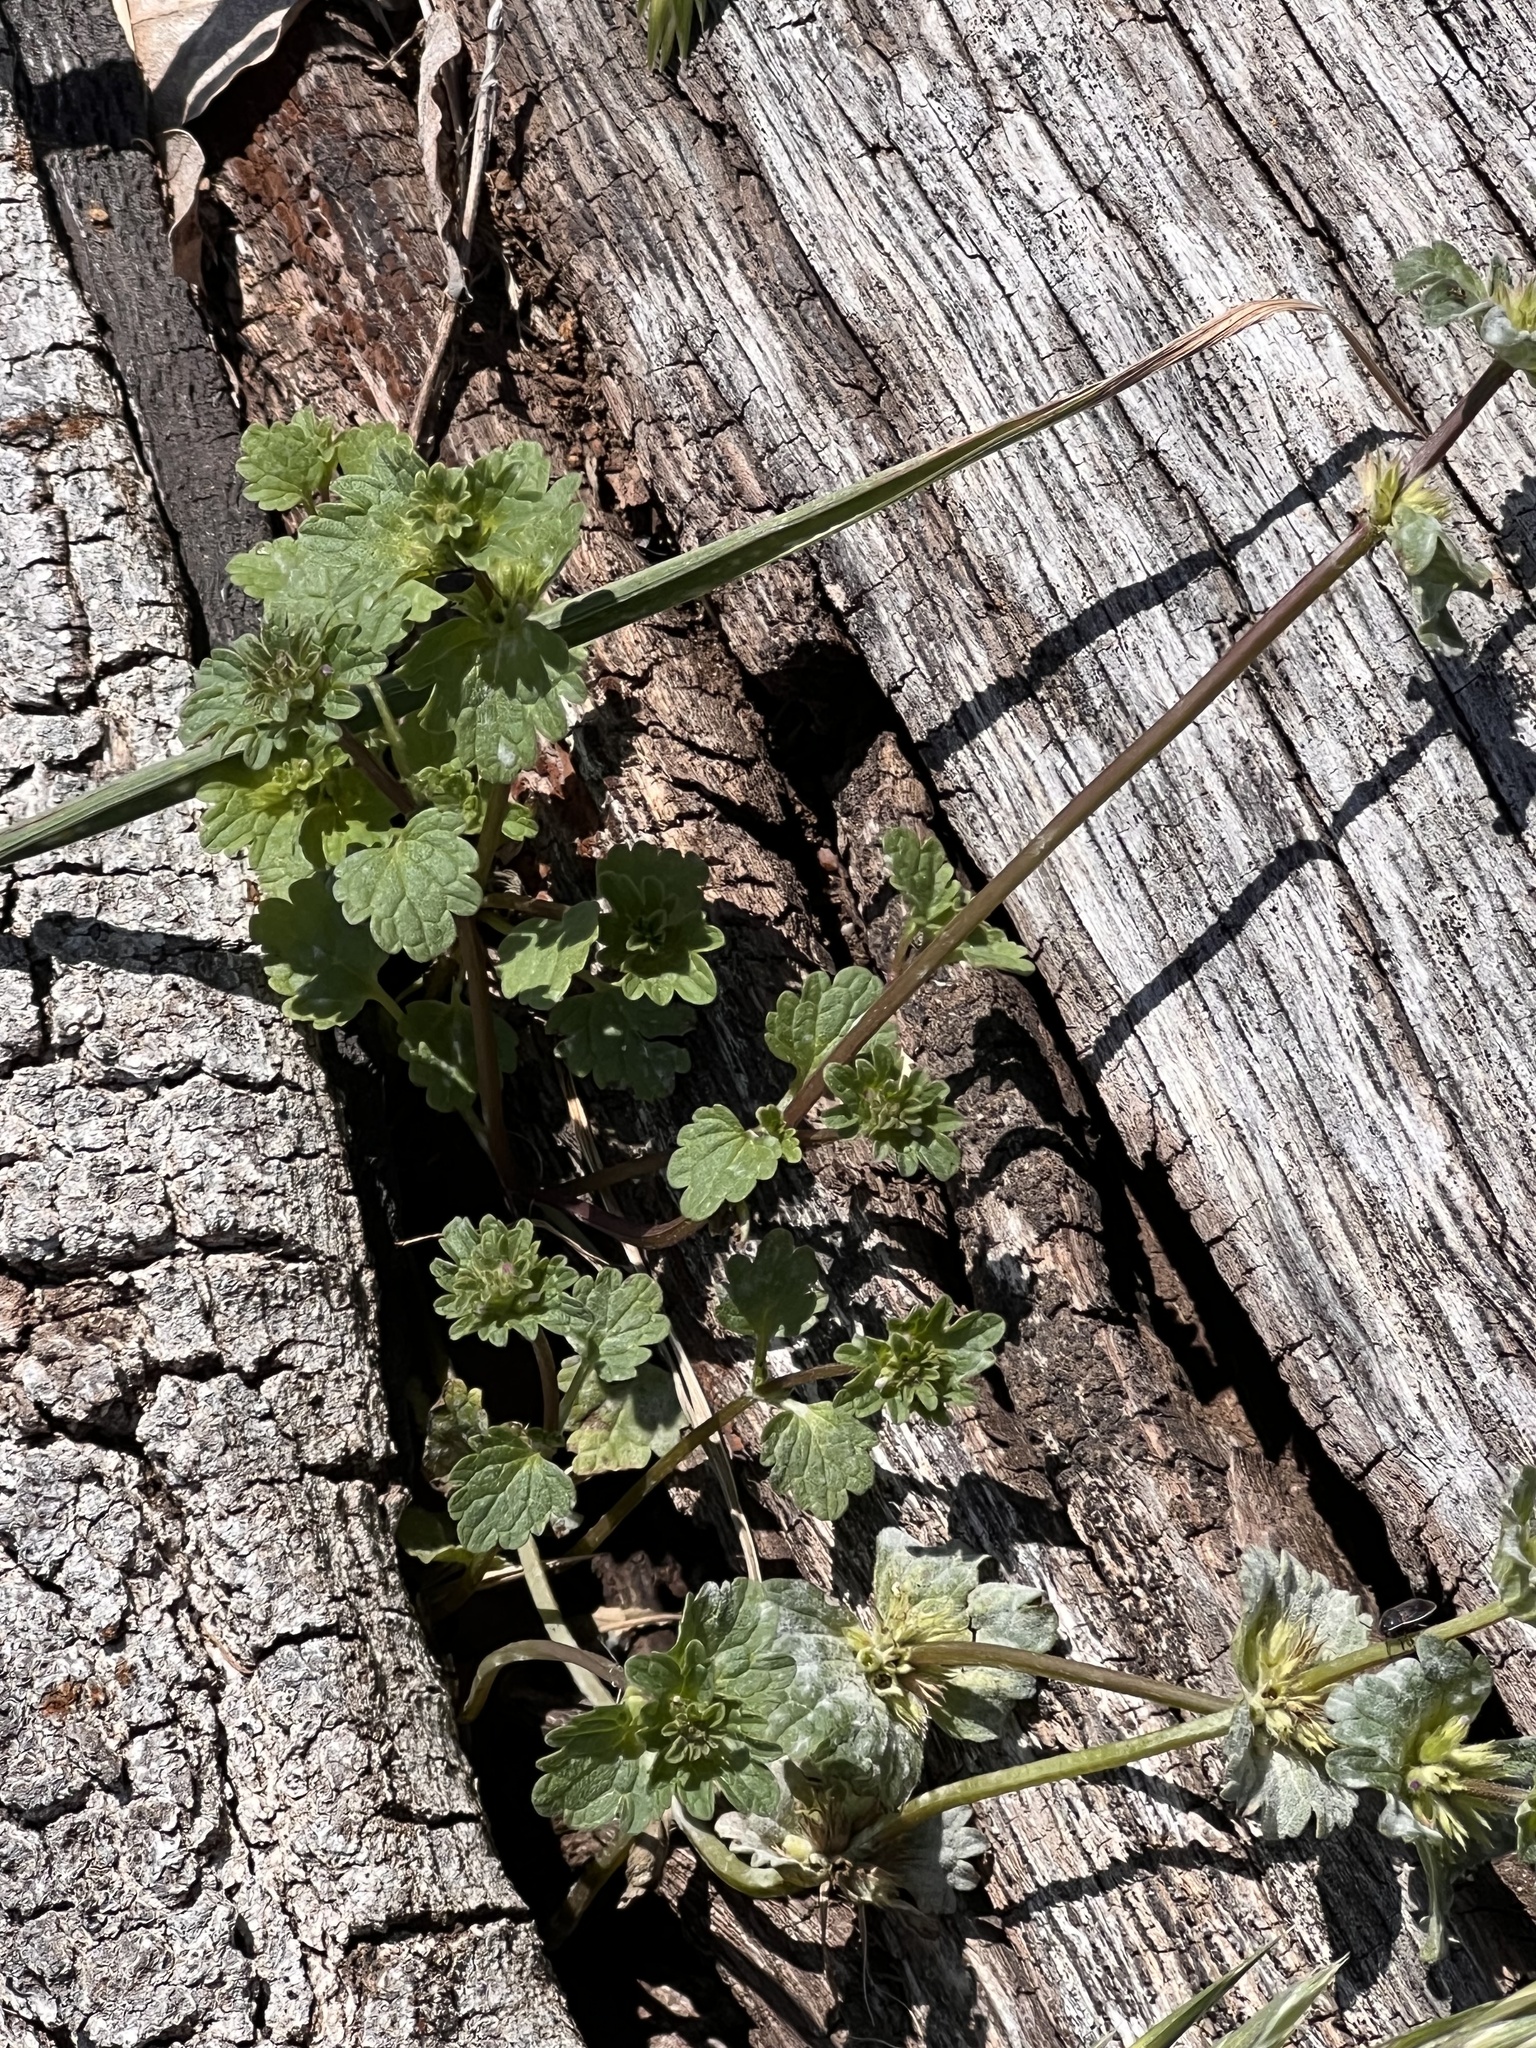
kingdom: Plantae
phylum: Tracheophyta
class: Magnoliopsida
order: Lamiales
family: Lamiaceae
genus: Lamium
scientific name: Lamium amplexicaule
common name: Henbit dead-nettle
